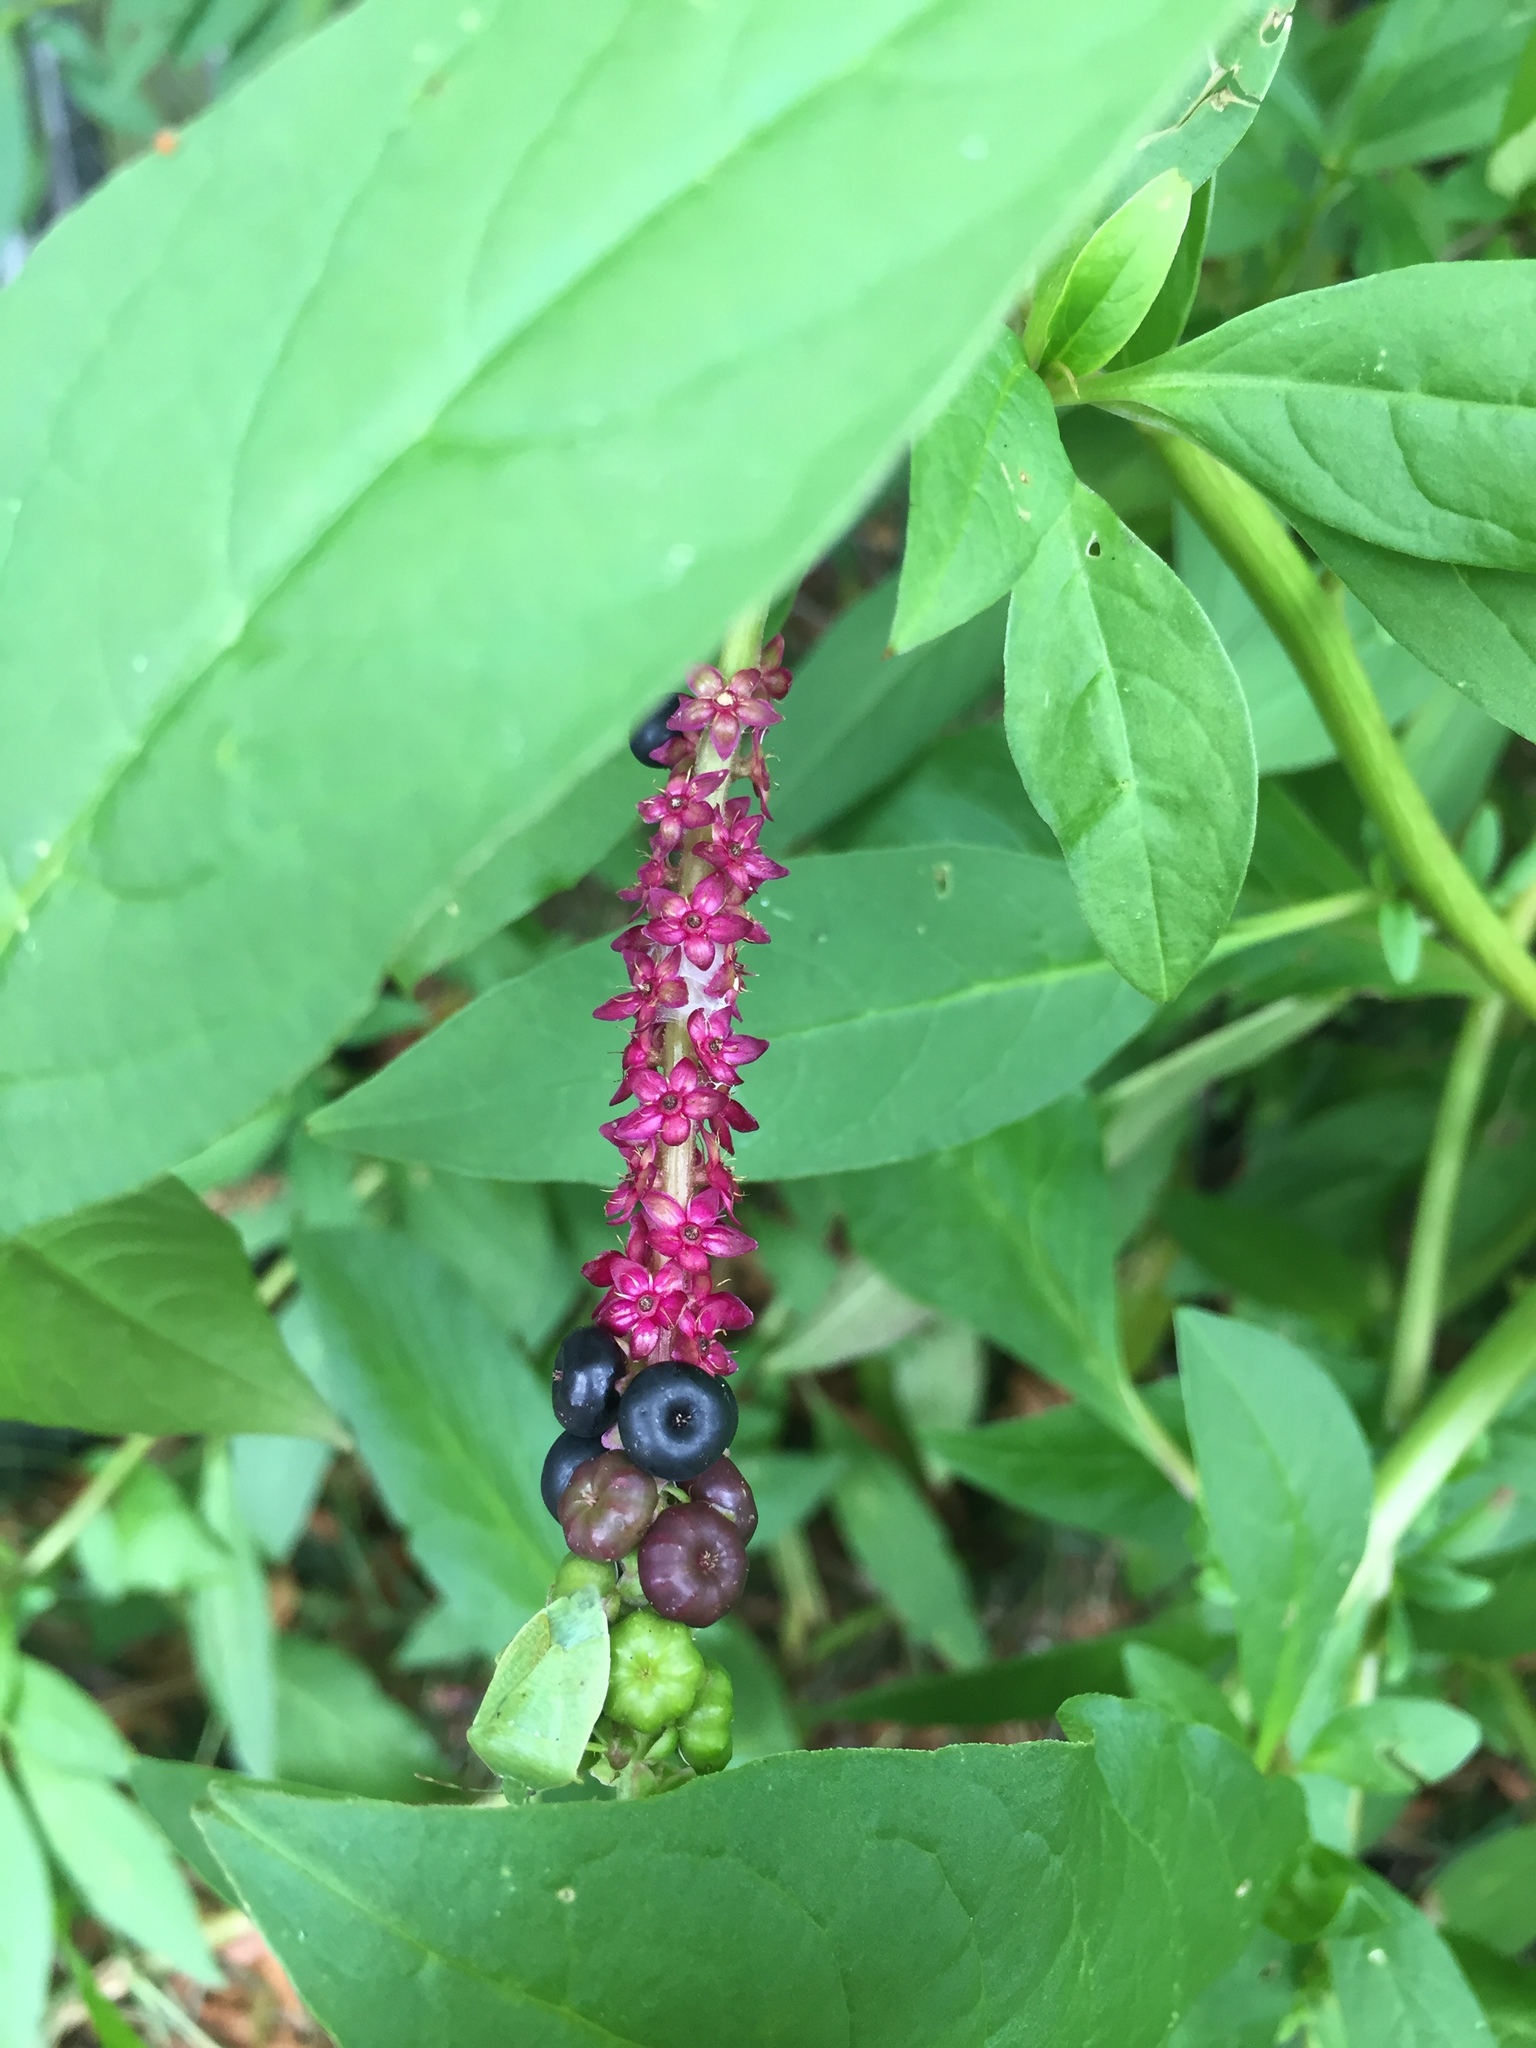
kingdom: Plantae
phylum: Tracheophyta
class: Magnoliopsida
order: Caryophyllales
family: Phytolaccaceae
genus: Phytolacca
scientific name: Phytolacca icosandra
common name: Button pokeweed
